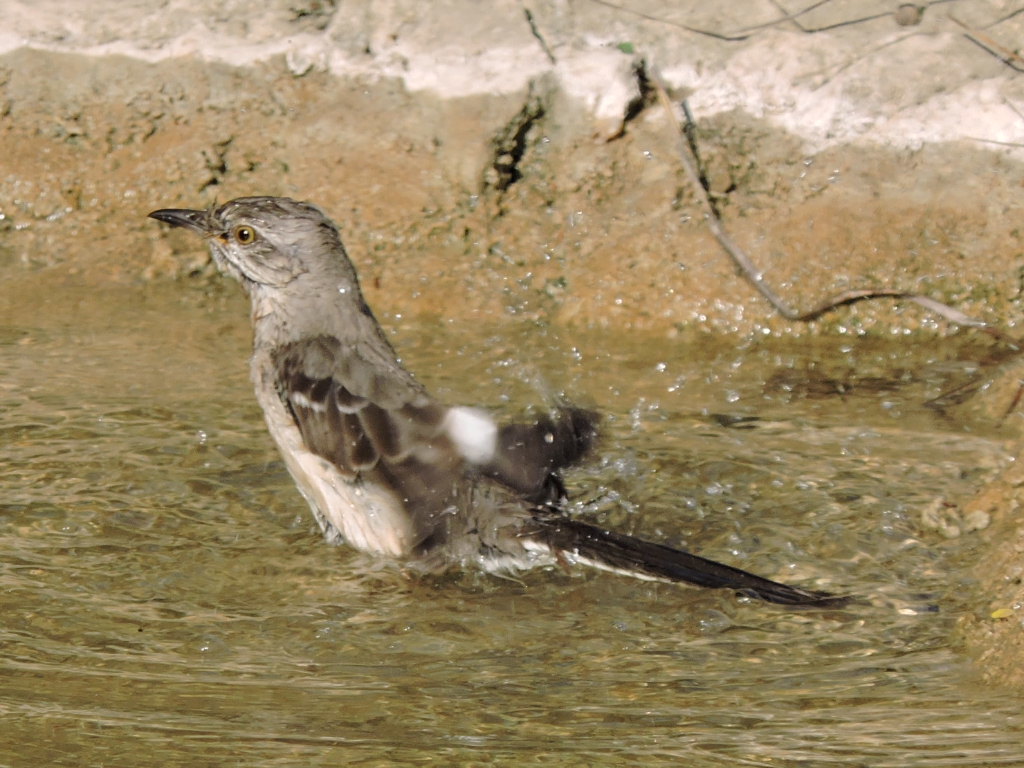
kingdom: Animalia
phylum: Chordata
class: Aves
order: Passeriformes
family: Mimidae
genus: Mimus
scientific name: Mimus polyglottos
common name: Northern mockingbird
